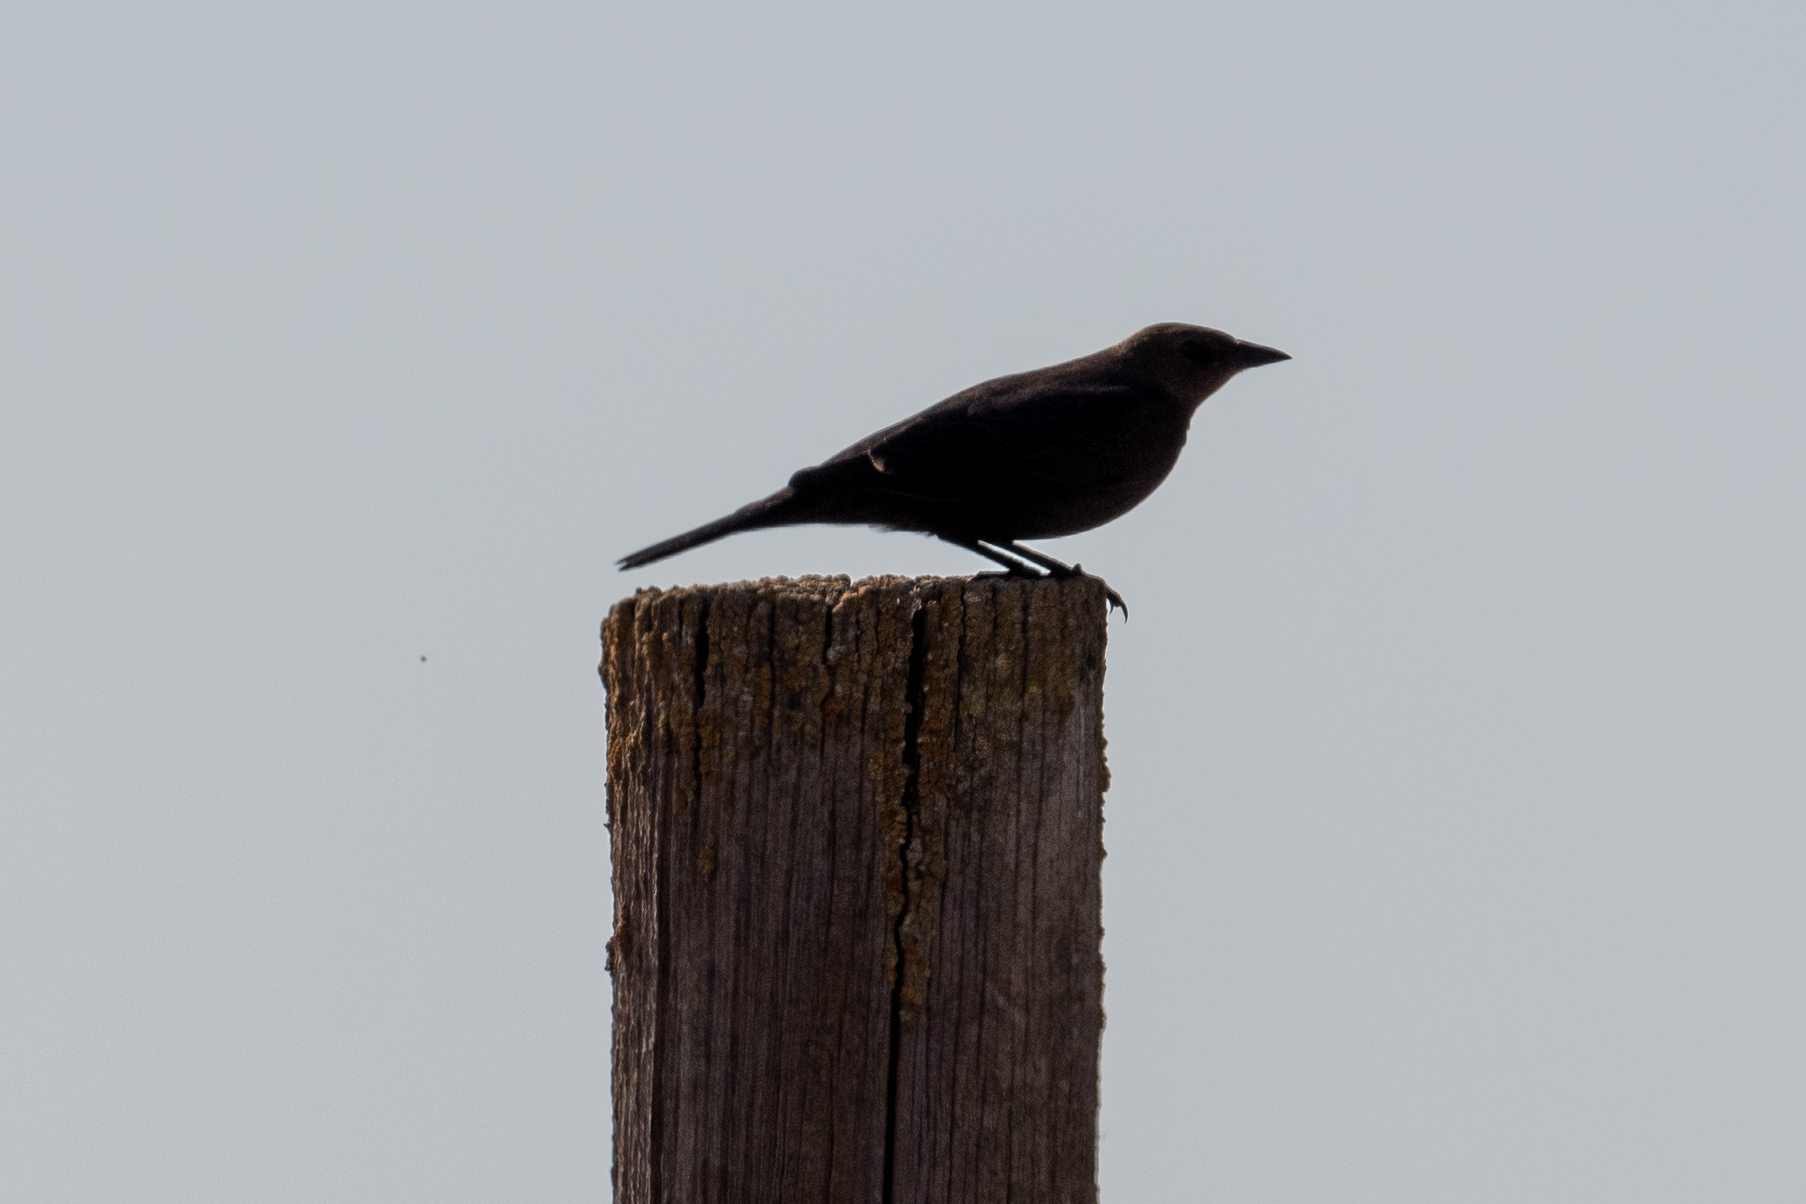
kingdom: Animalia
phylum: Chordata
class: Aves
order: Passeriformes
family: Icteridae
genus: Euphagus
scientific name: Euphagus cyanocephalus
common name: Brewer's blackbird
